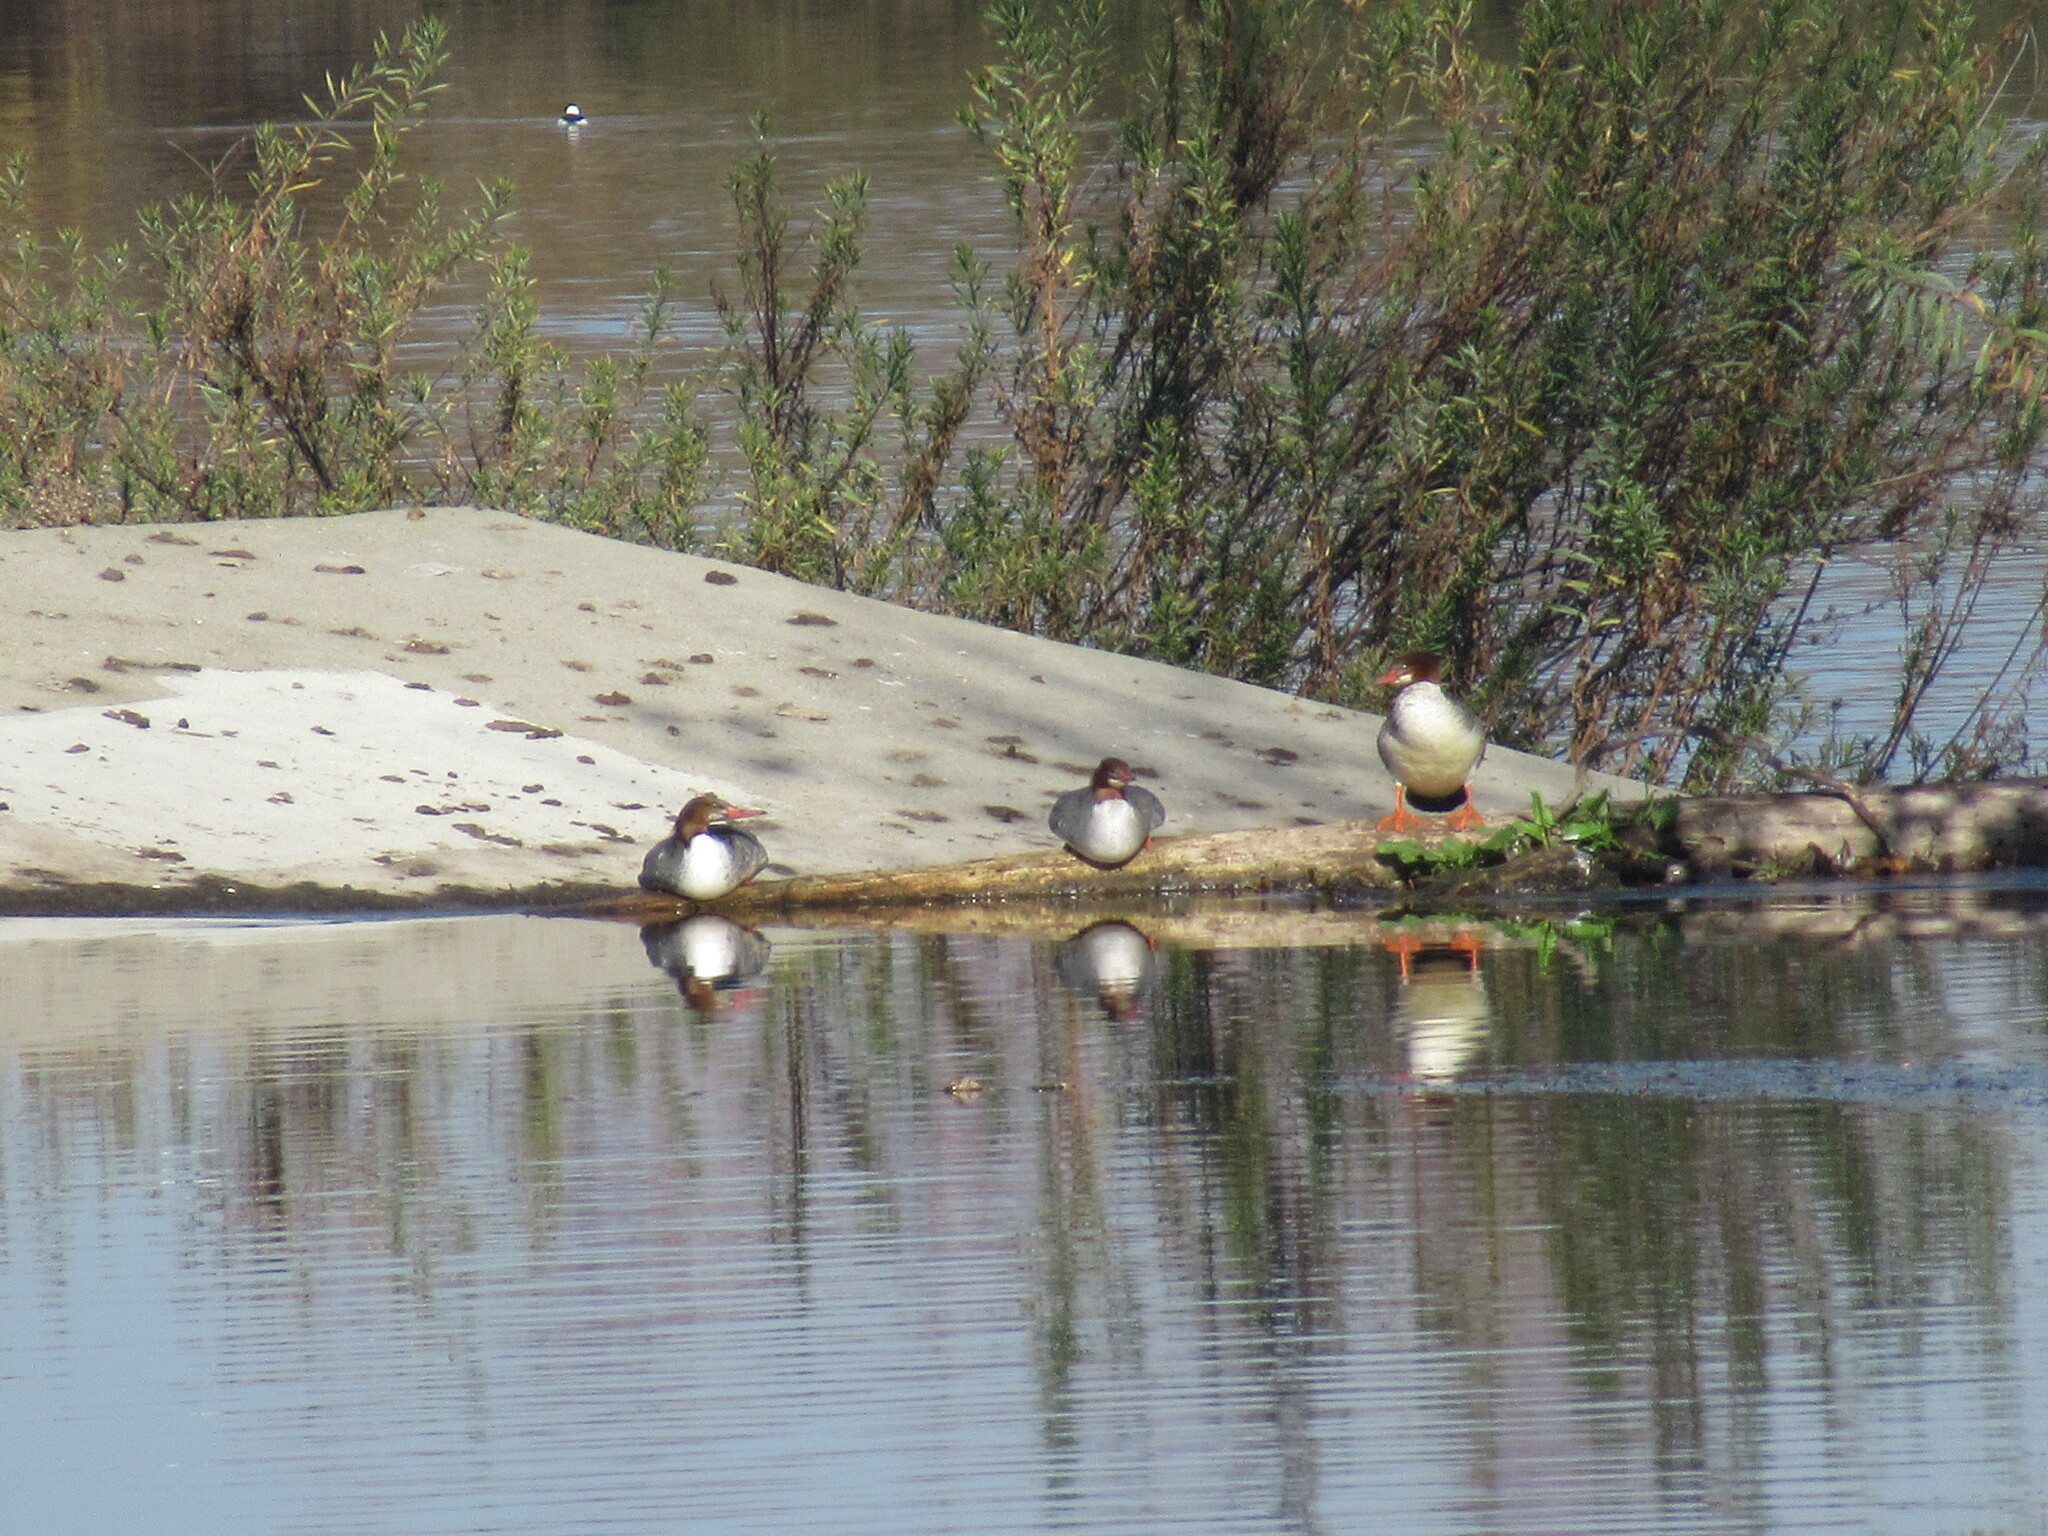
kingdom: Animalia
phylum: Chordata
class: Aves
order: Anseriformes
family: Anatidae
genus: Mergus
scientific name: Mergus merganser
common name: Common merganser
